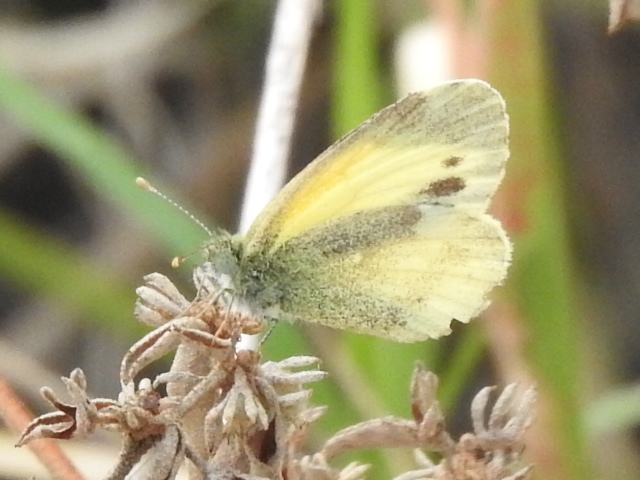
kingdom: Animalia
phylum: Arthropoda
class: Insecta
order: Lepidoptera
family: Pieridae
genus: Nathalis
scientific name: Nathalis iole
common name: Dainty sulphur
